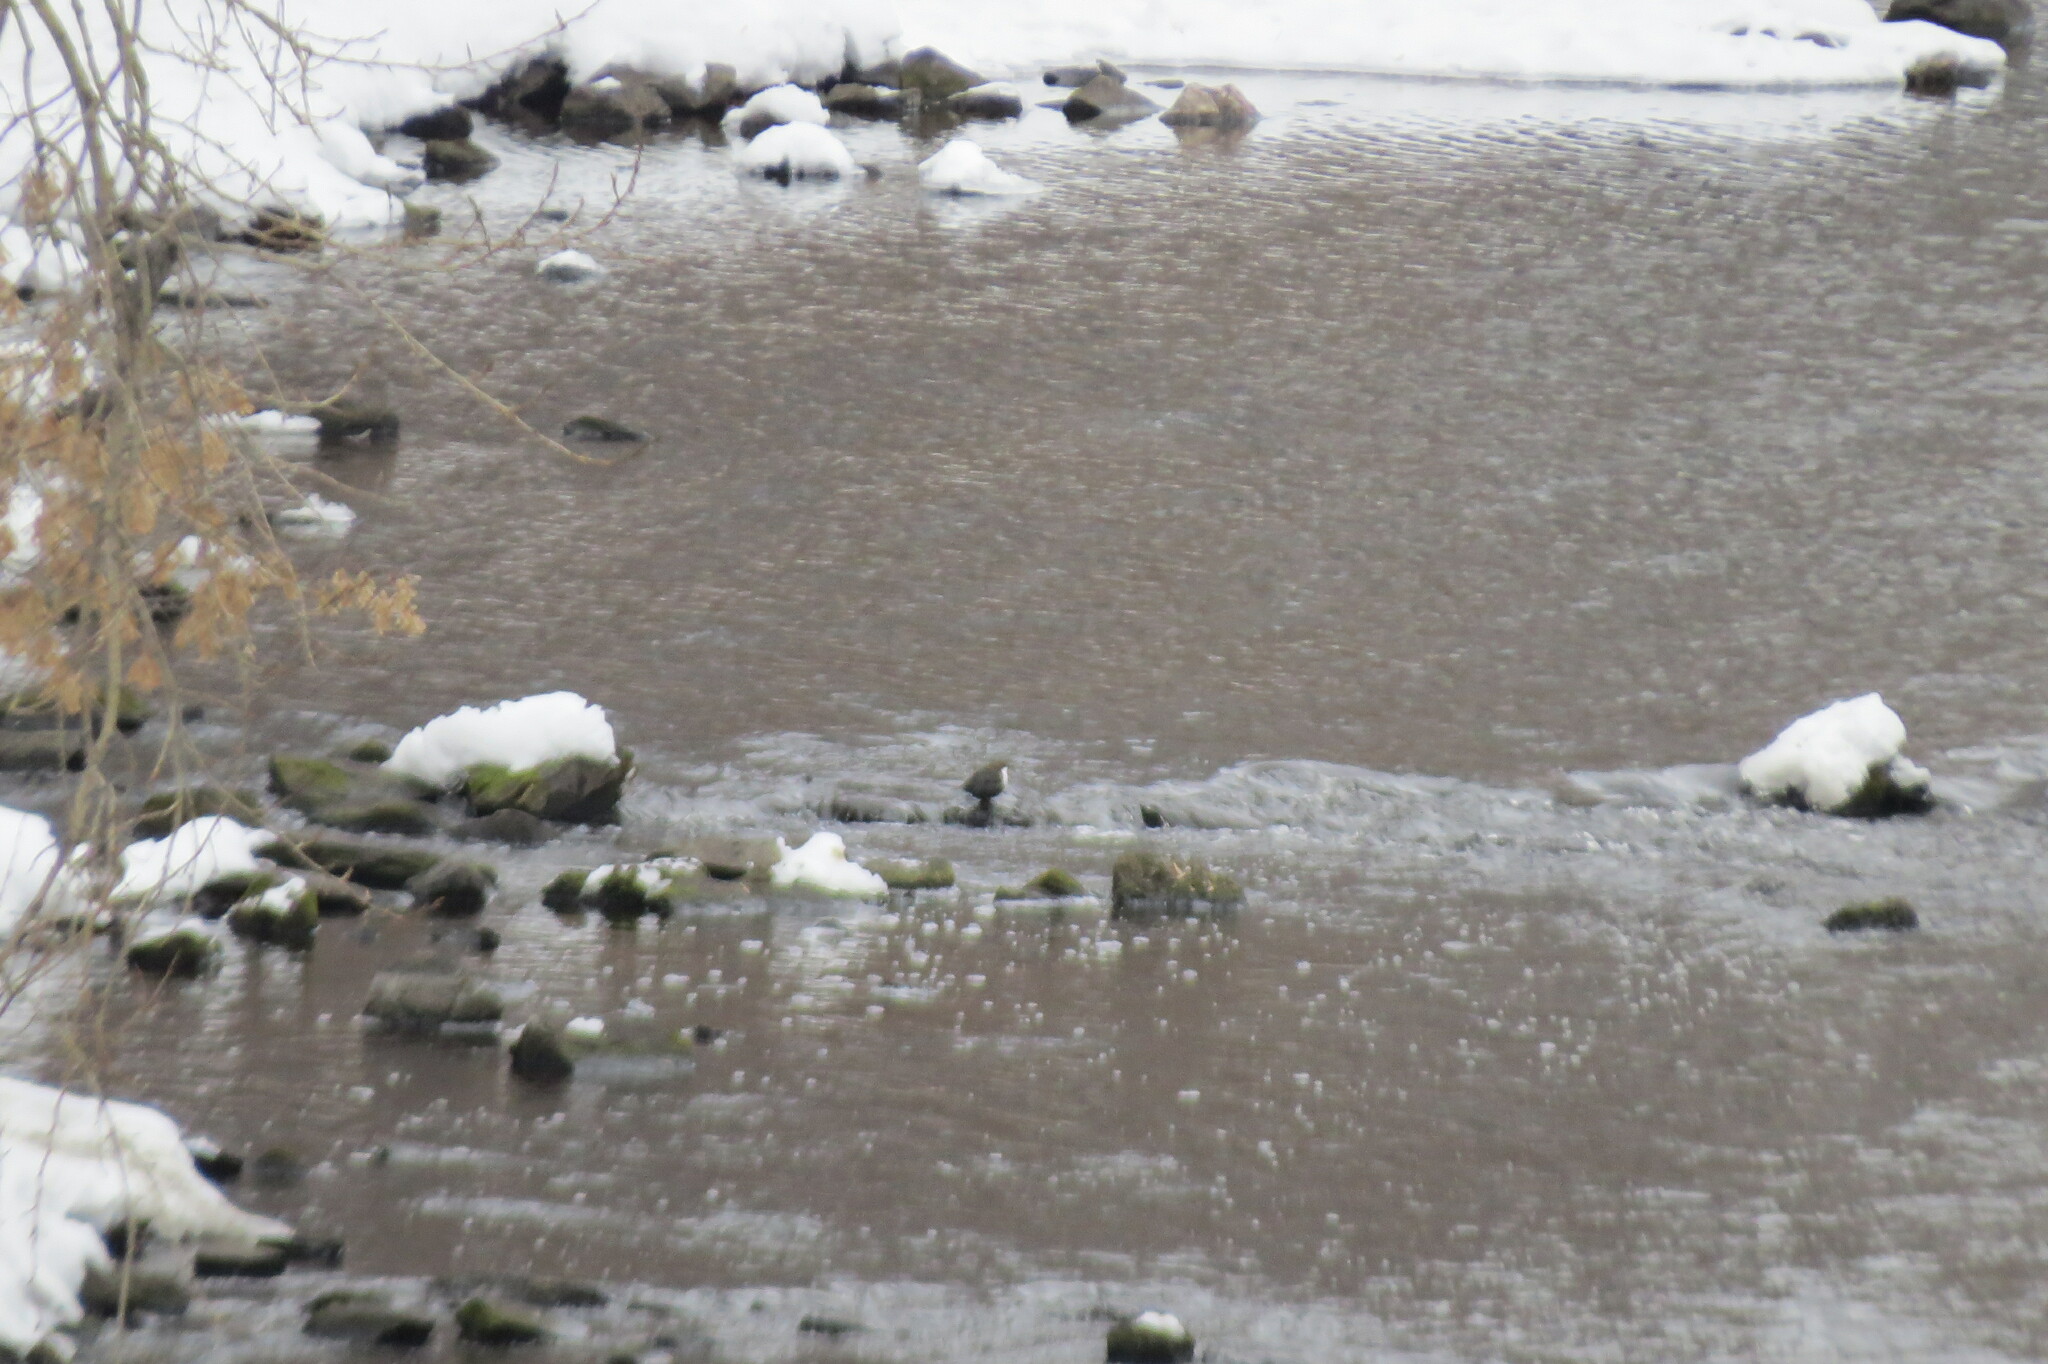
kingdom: Animalia
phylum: Chordata
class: Aves
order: Passeriformes
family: Cinclidae
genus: Cinclus
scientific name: Cinclus cinclus
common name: White-throated dipper
